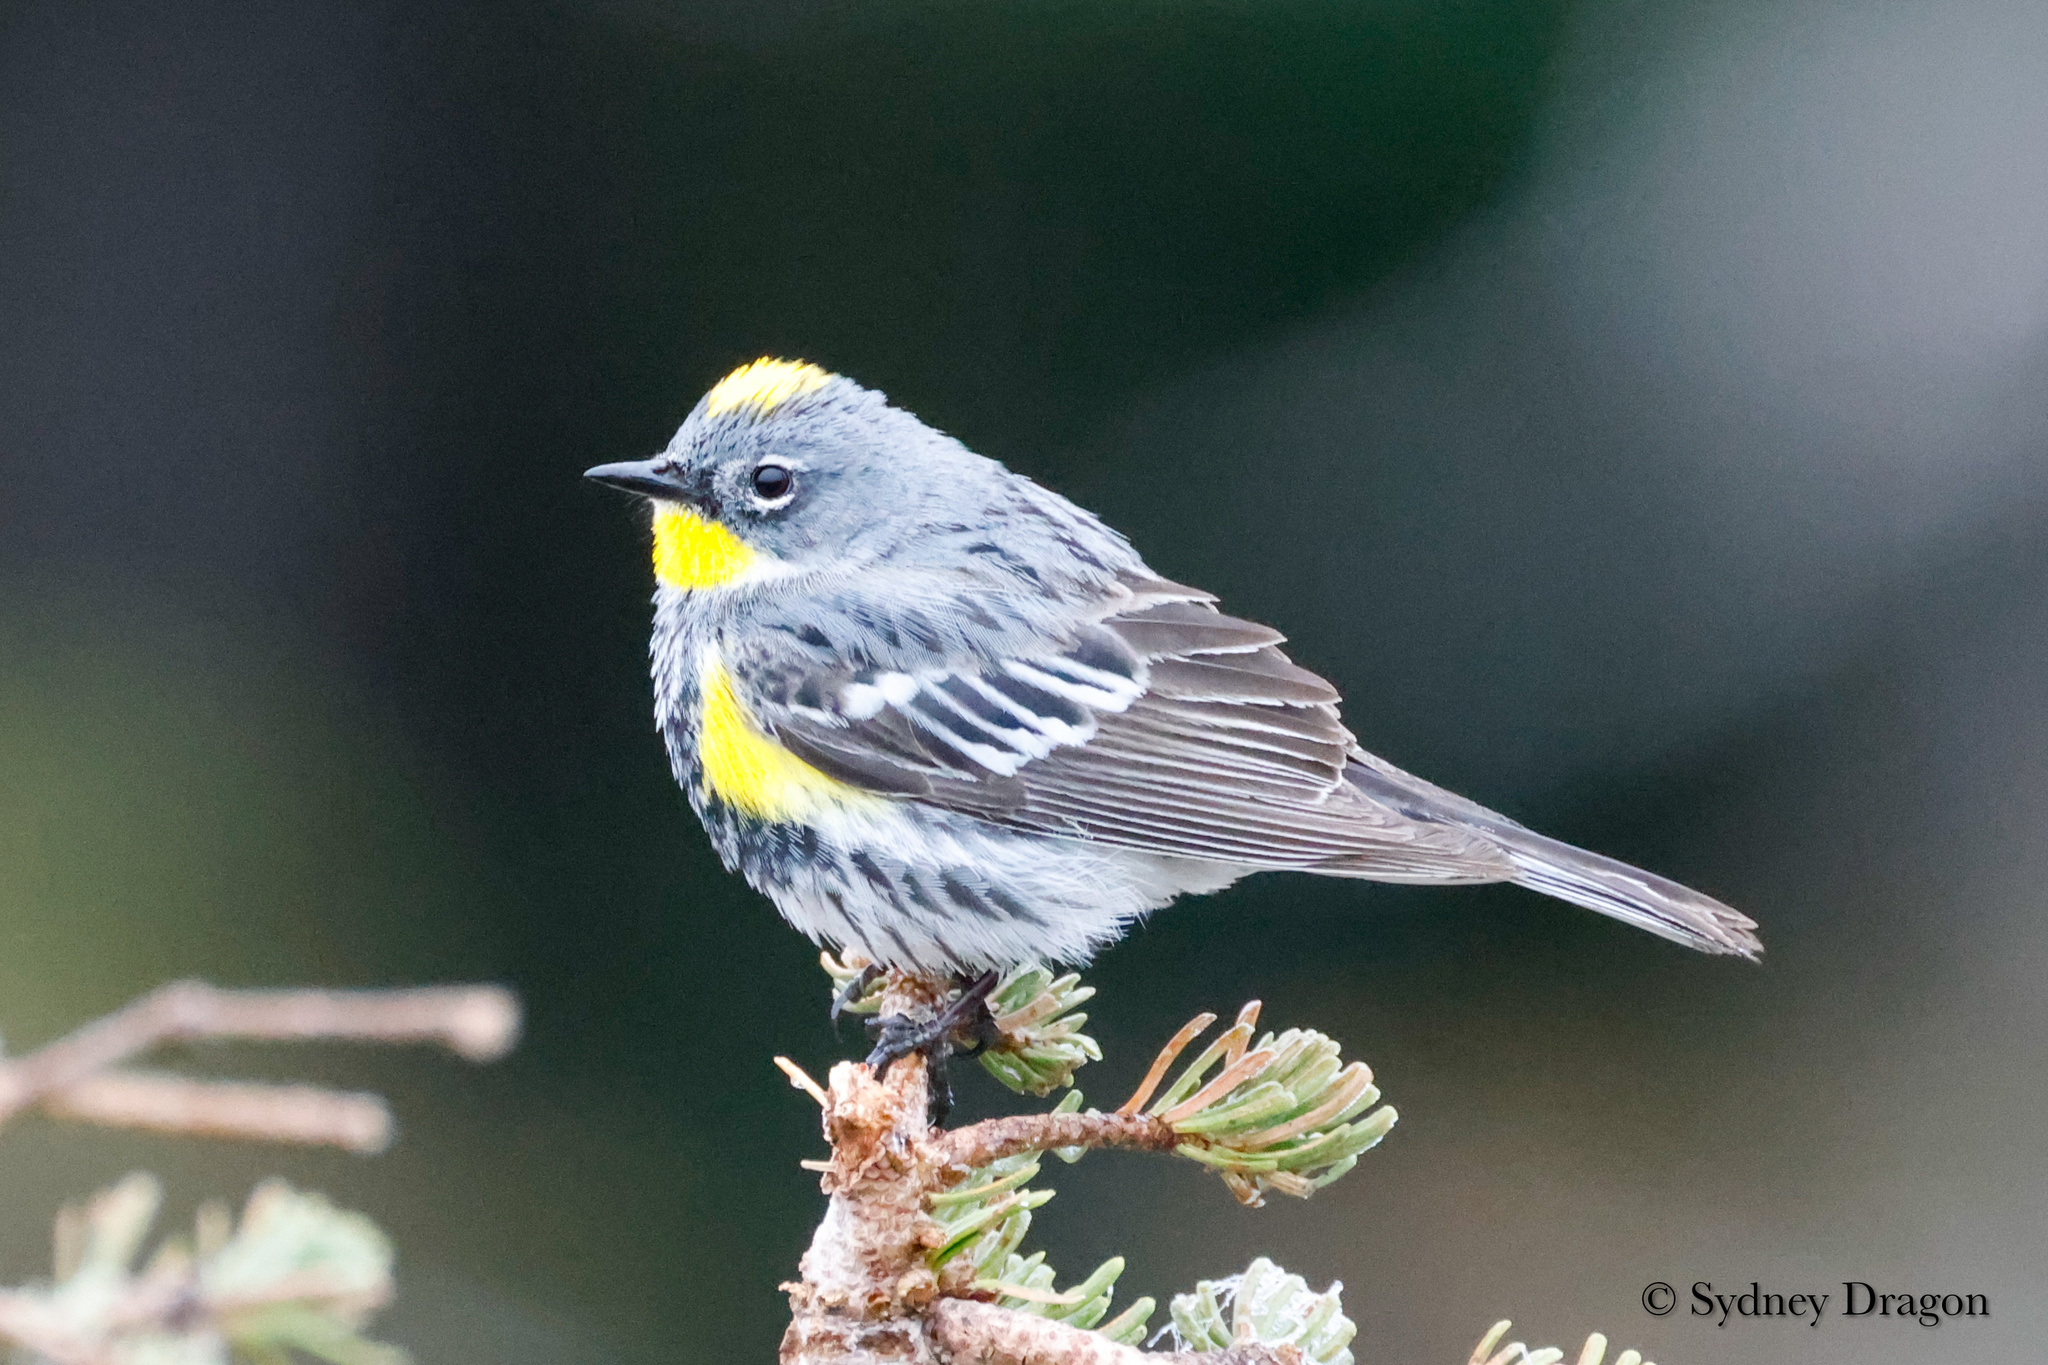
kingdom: Animalia
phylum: Chordata
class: Aves
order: Passeriformes
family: Parulidae
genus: Setophaga
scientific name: Setophaga coronata
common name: Myrtle warbler
